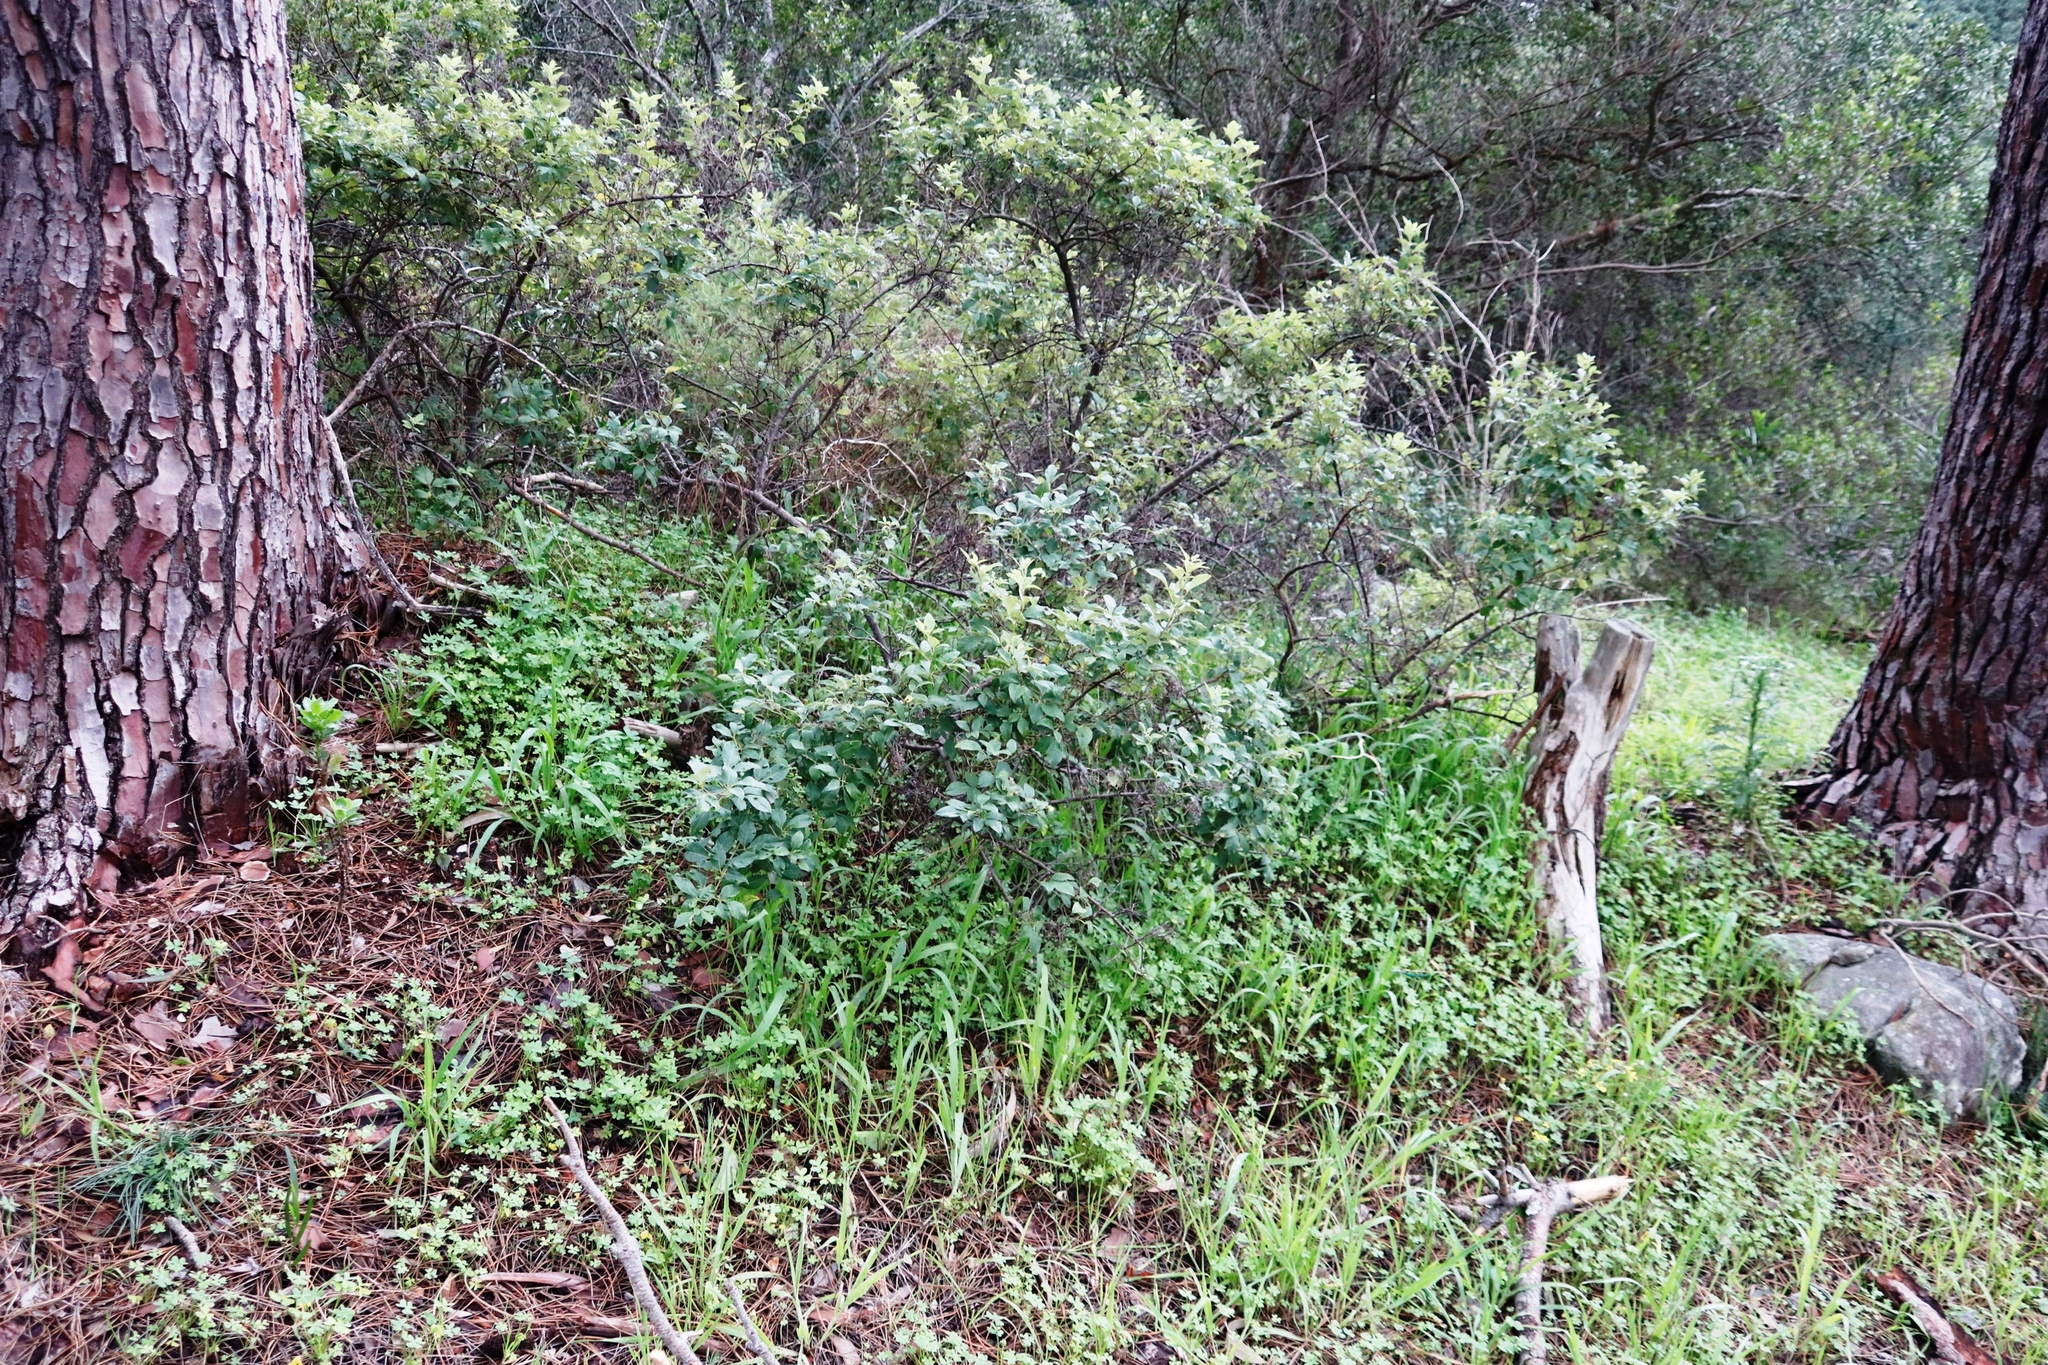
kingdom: Plantae
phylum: Tracheophyta
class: Magnoliopsida
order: Sapindales
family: Anacardiaceae
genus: Searsia
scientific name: Searsia tomentosa
